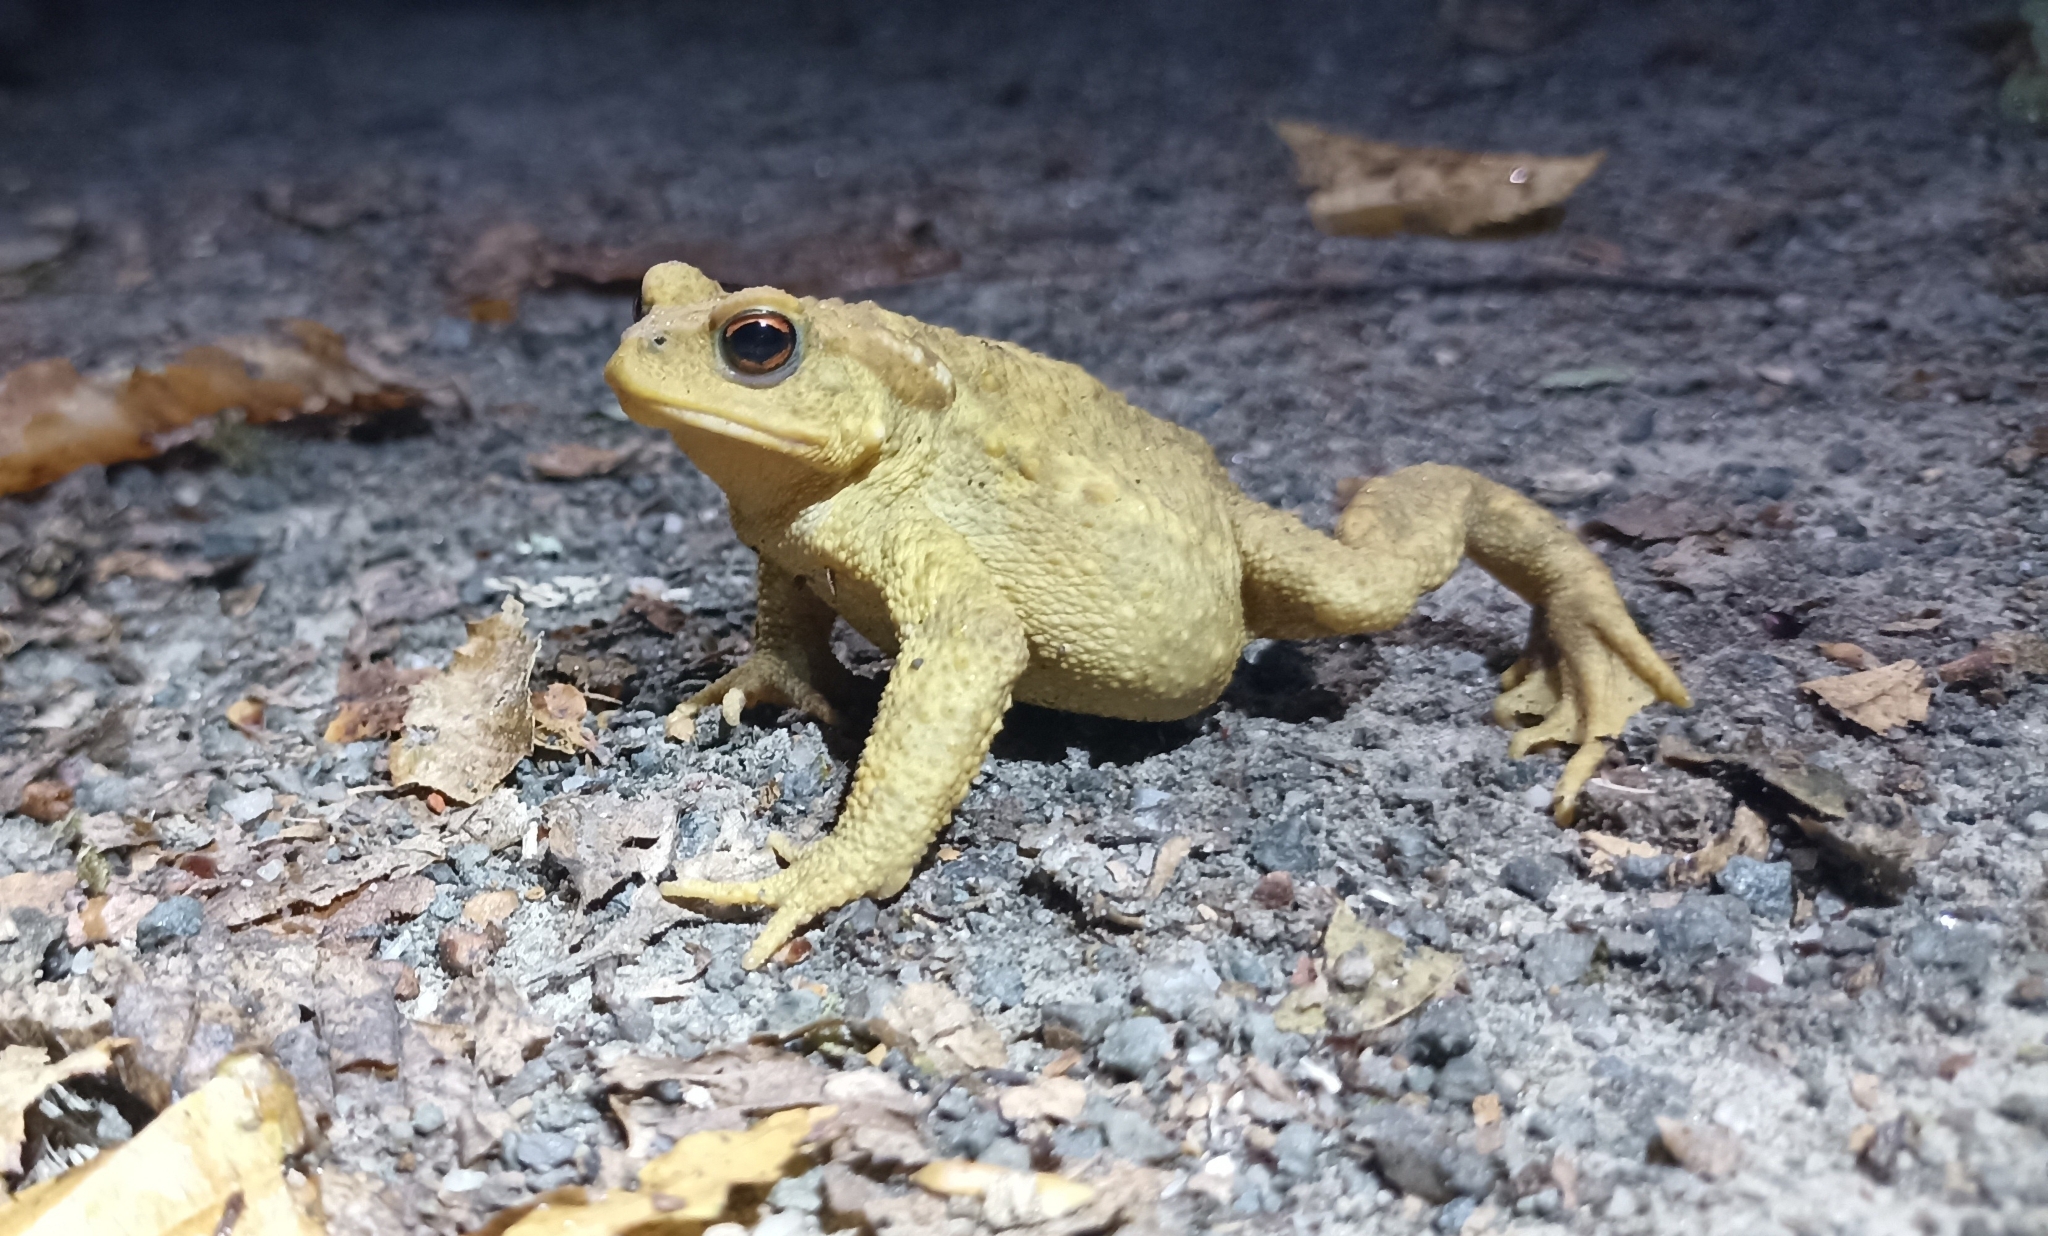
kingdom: Animalia
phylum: Chordata
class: Amphibia
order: Anura
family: Bufonidae
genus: Bufo
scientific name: Bufo spinosus
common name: Western common toad
